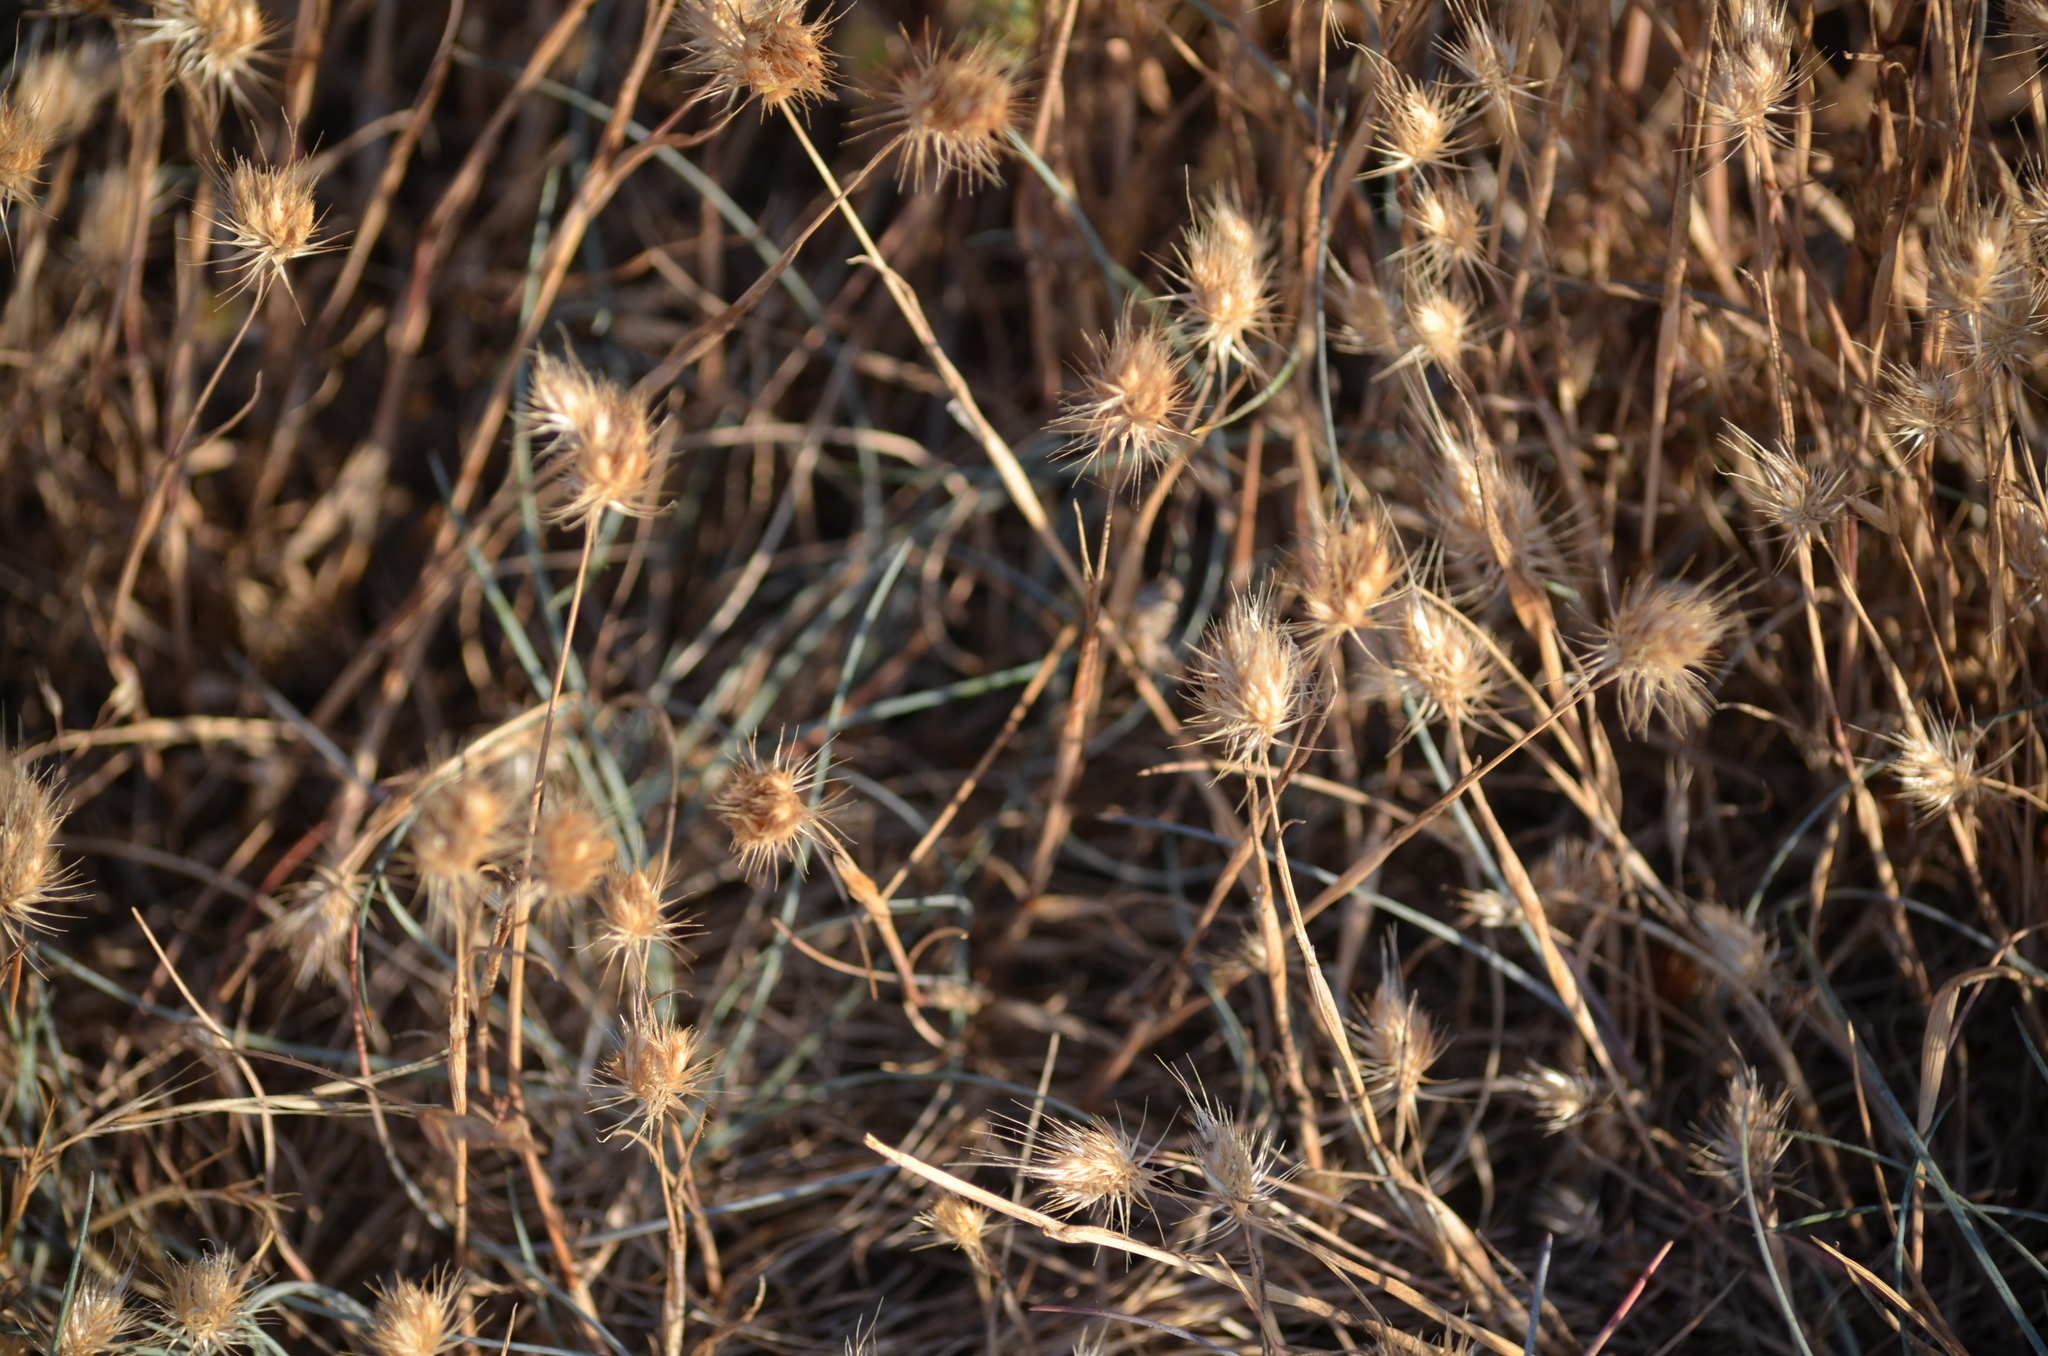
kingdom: Plantae
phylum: Tracheophyta
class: Liliopsida
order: Poales
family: Poaceae
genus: Cynosurus
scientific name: Cynosurus echinatus
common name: Rough dog's-tail
